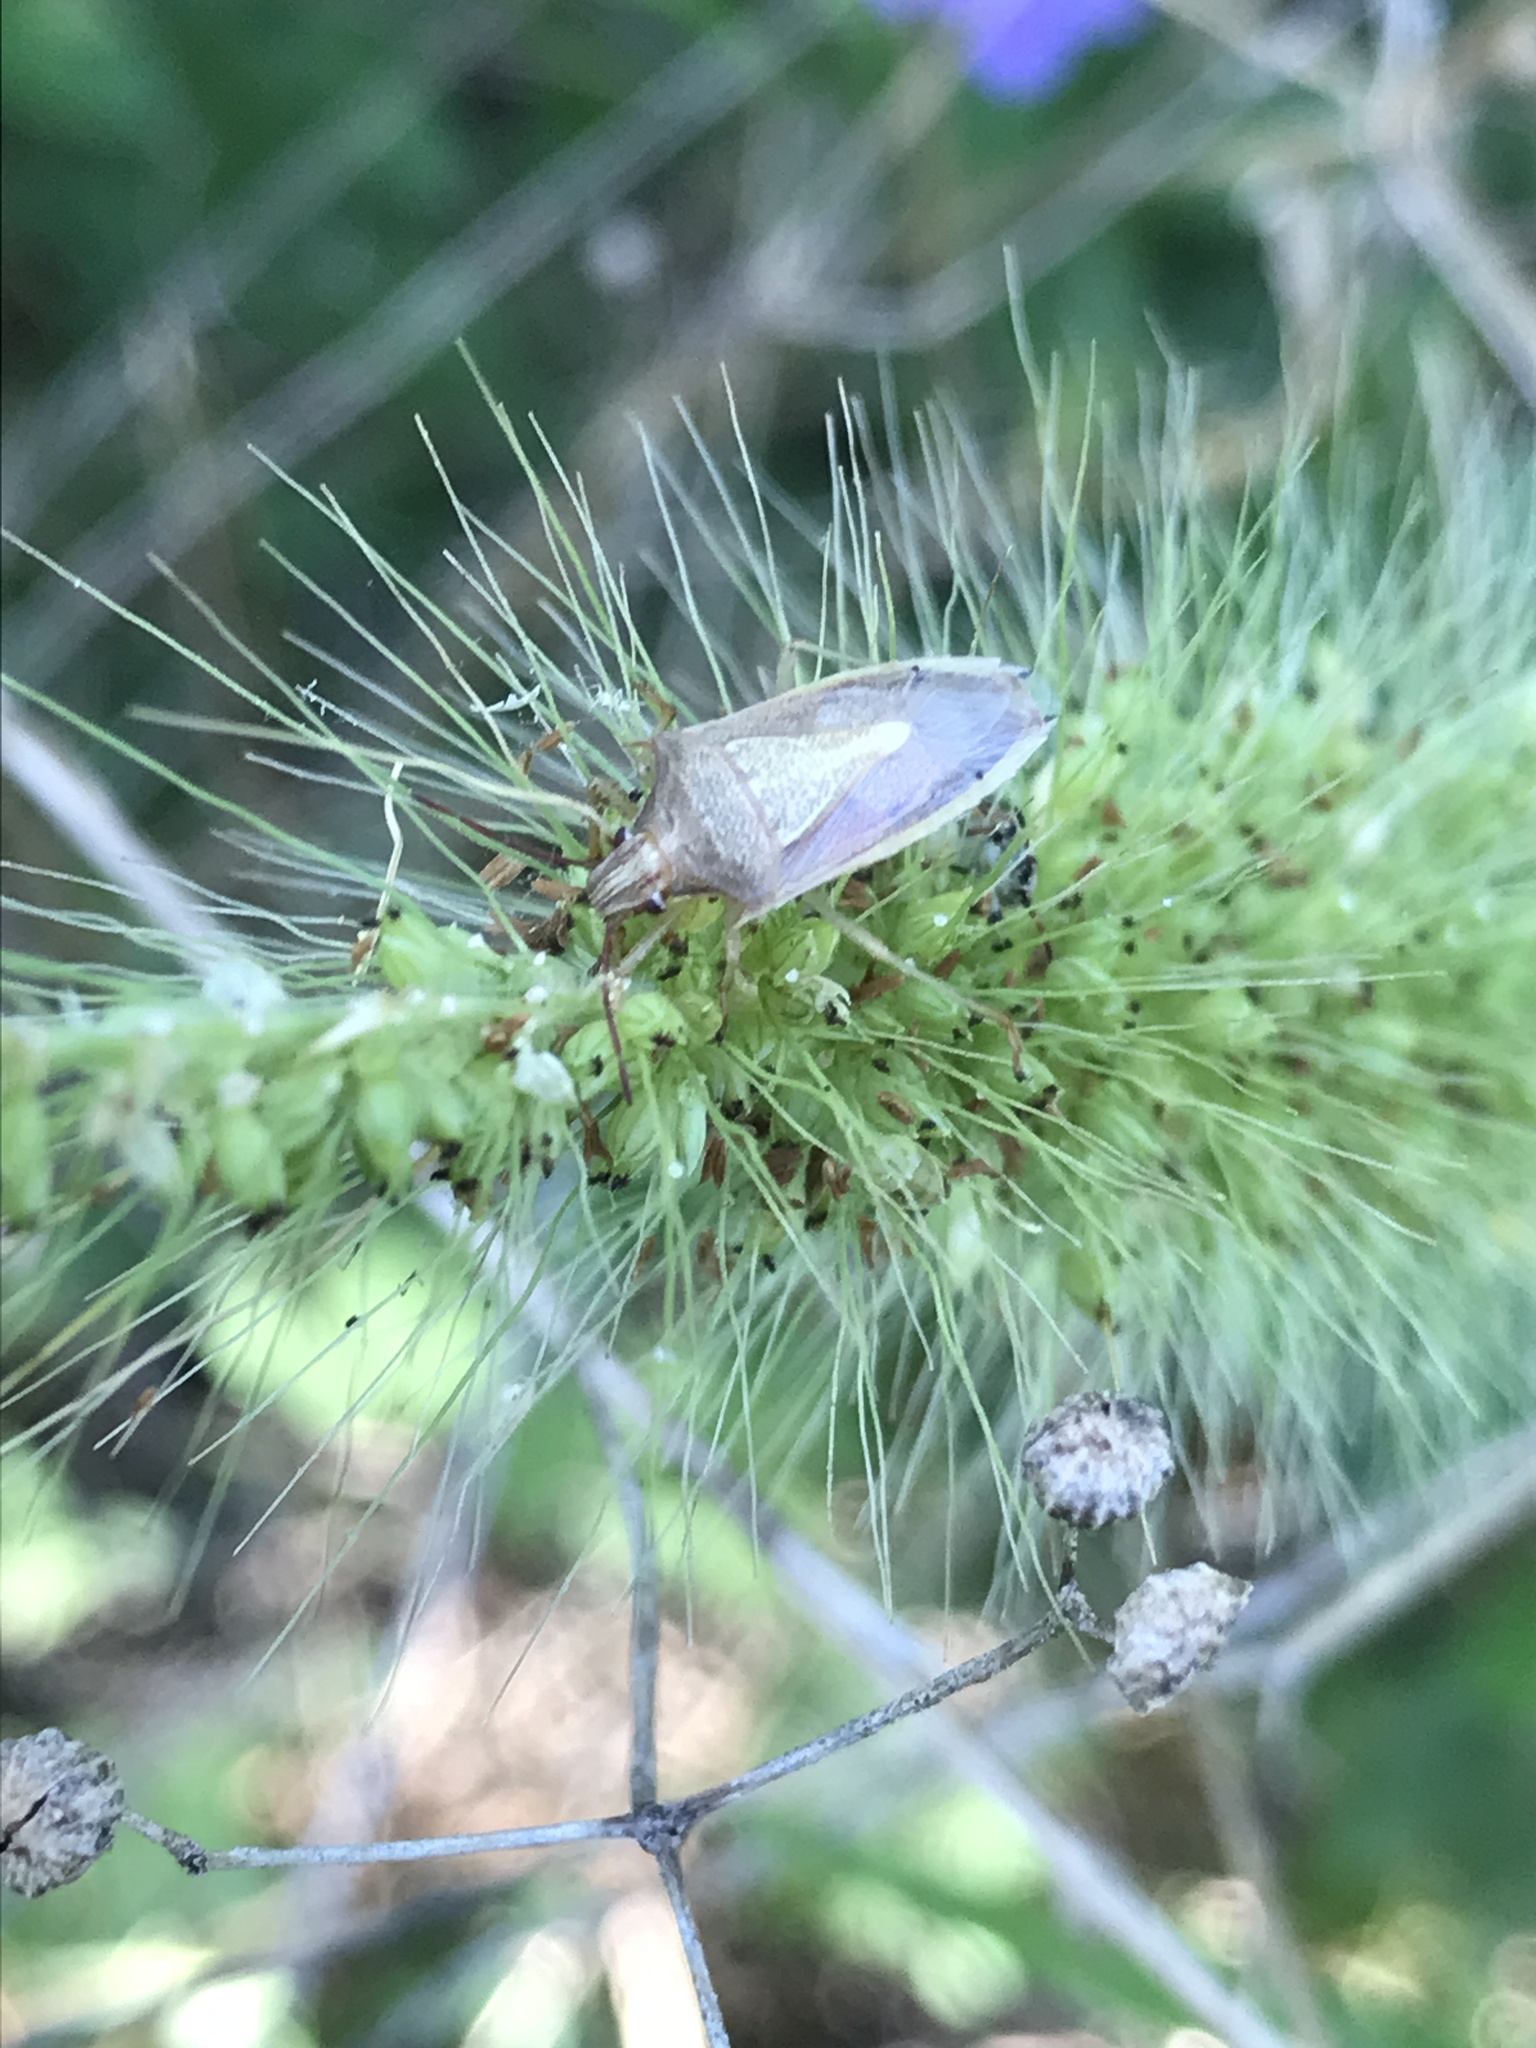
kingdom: Animalia
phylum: Arthropoda
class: Insecta
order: Hemiptera
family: Pentatomidae
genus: Oebalus
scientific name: Oebalus pugnax
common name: Rice stink bug
